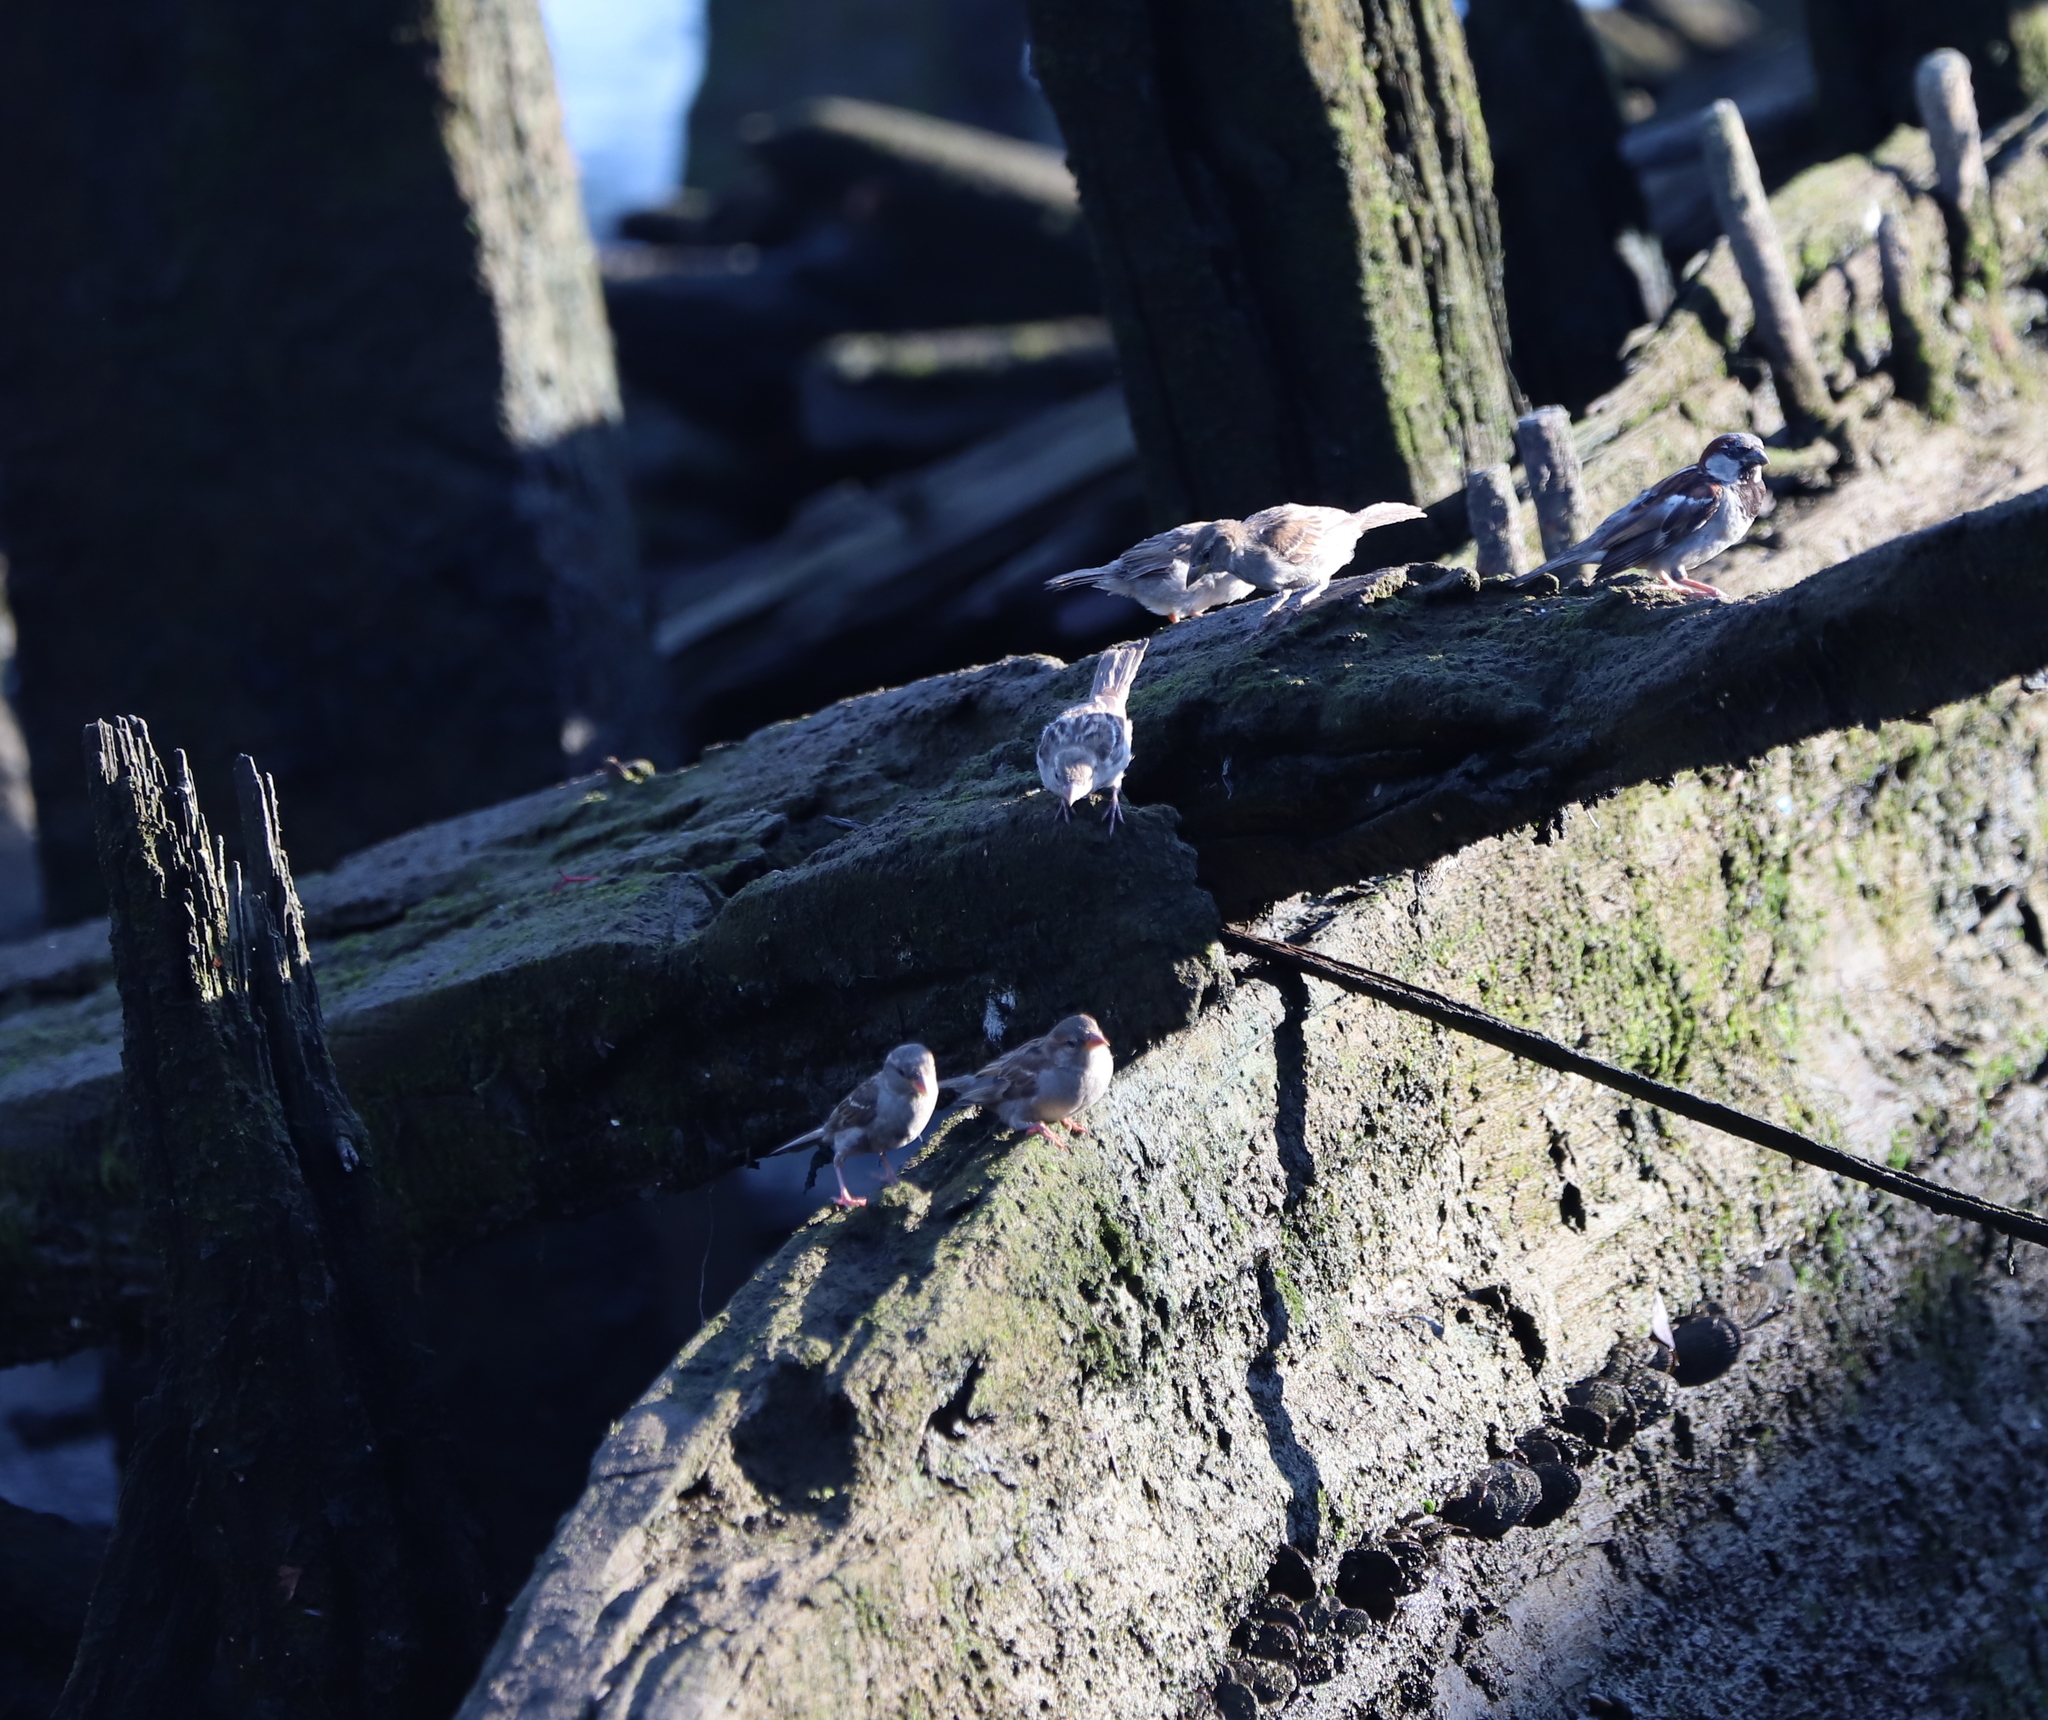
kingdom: Animalia
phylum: Chordata
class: Aves
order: Passeriformes
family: Passeridae
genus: Passer
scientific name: Passer domesticus
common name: House sparrow
